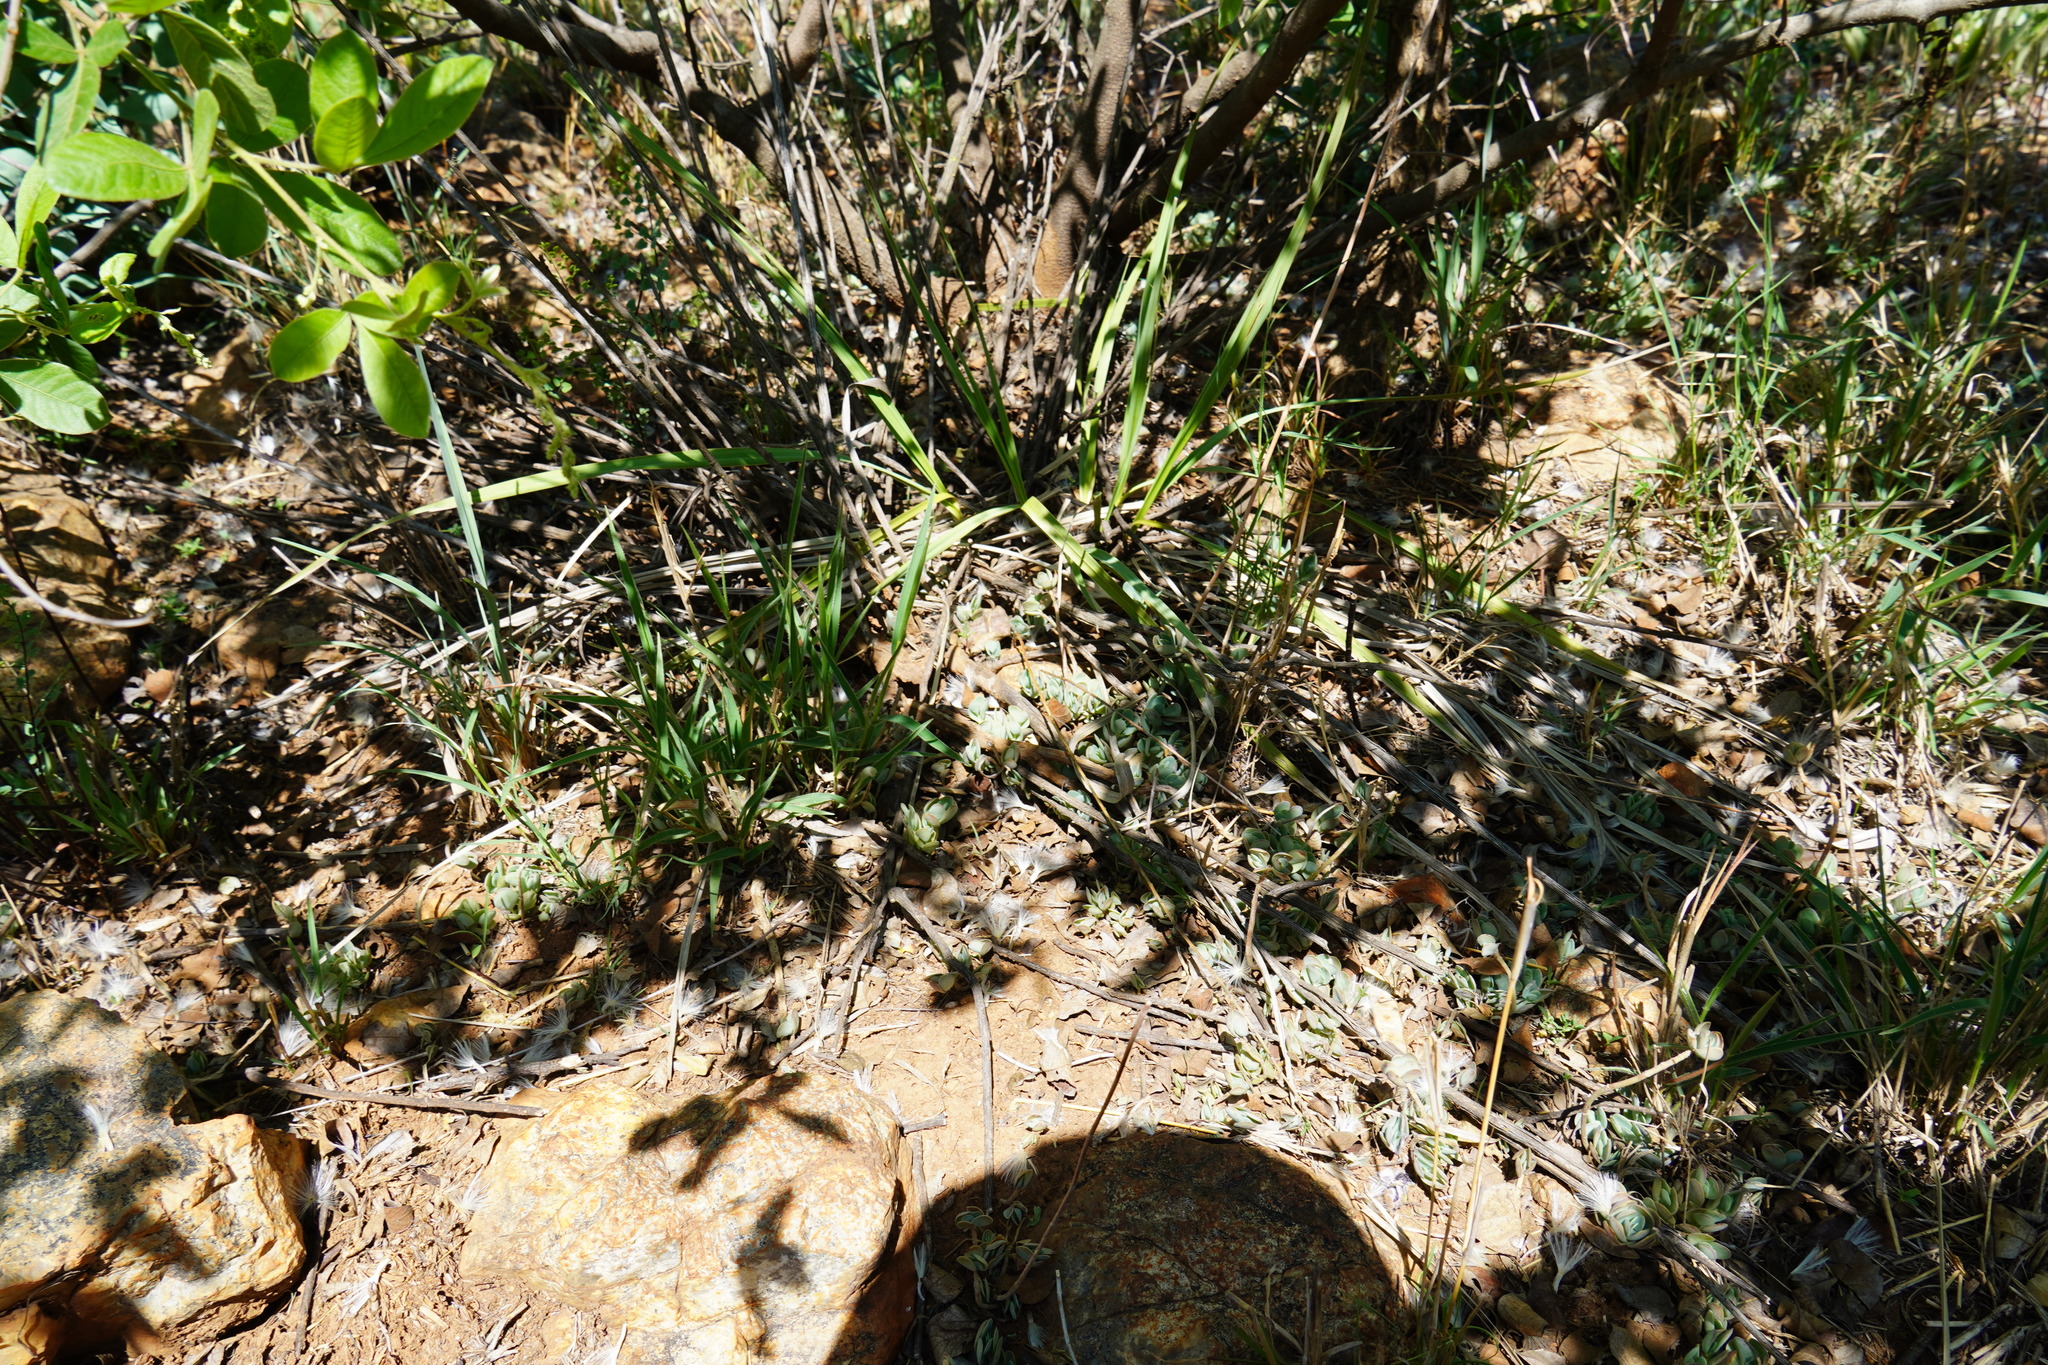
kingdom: Plantae
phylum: Tracheophyta
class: Magnoliopsida
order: Saxifragales
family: Crassulaceae
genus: Kalanchoe
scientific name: Kalanchoe rotundifolia
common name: Common kalanchoe
